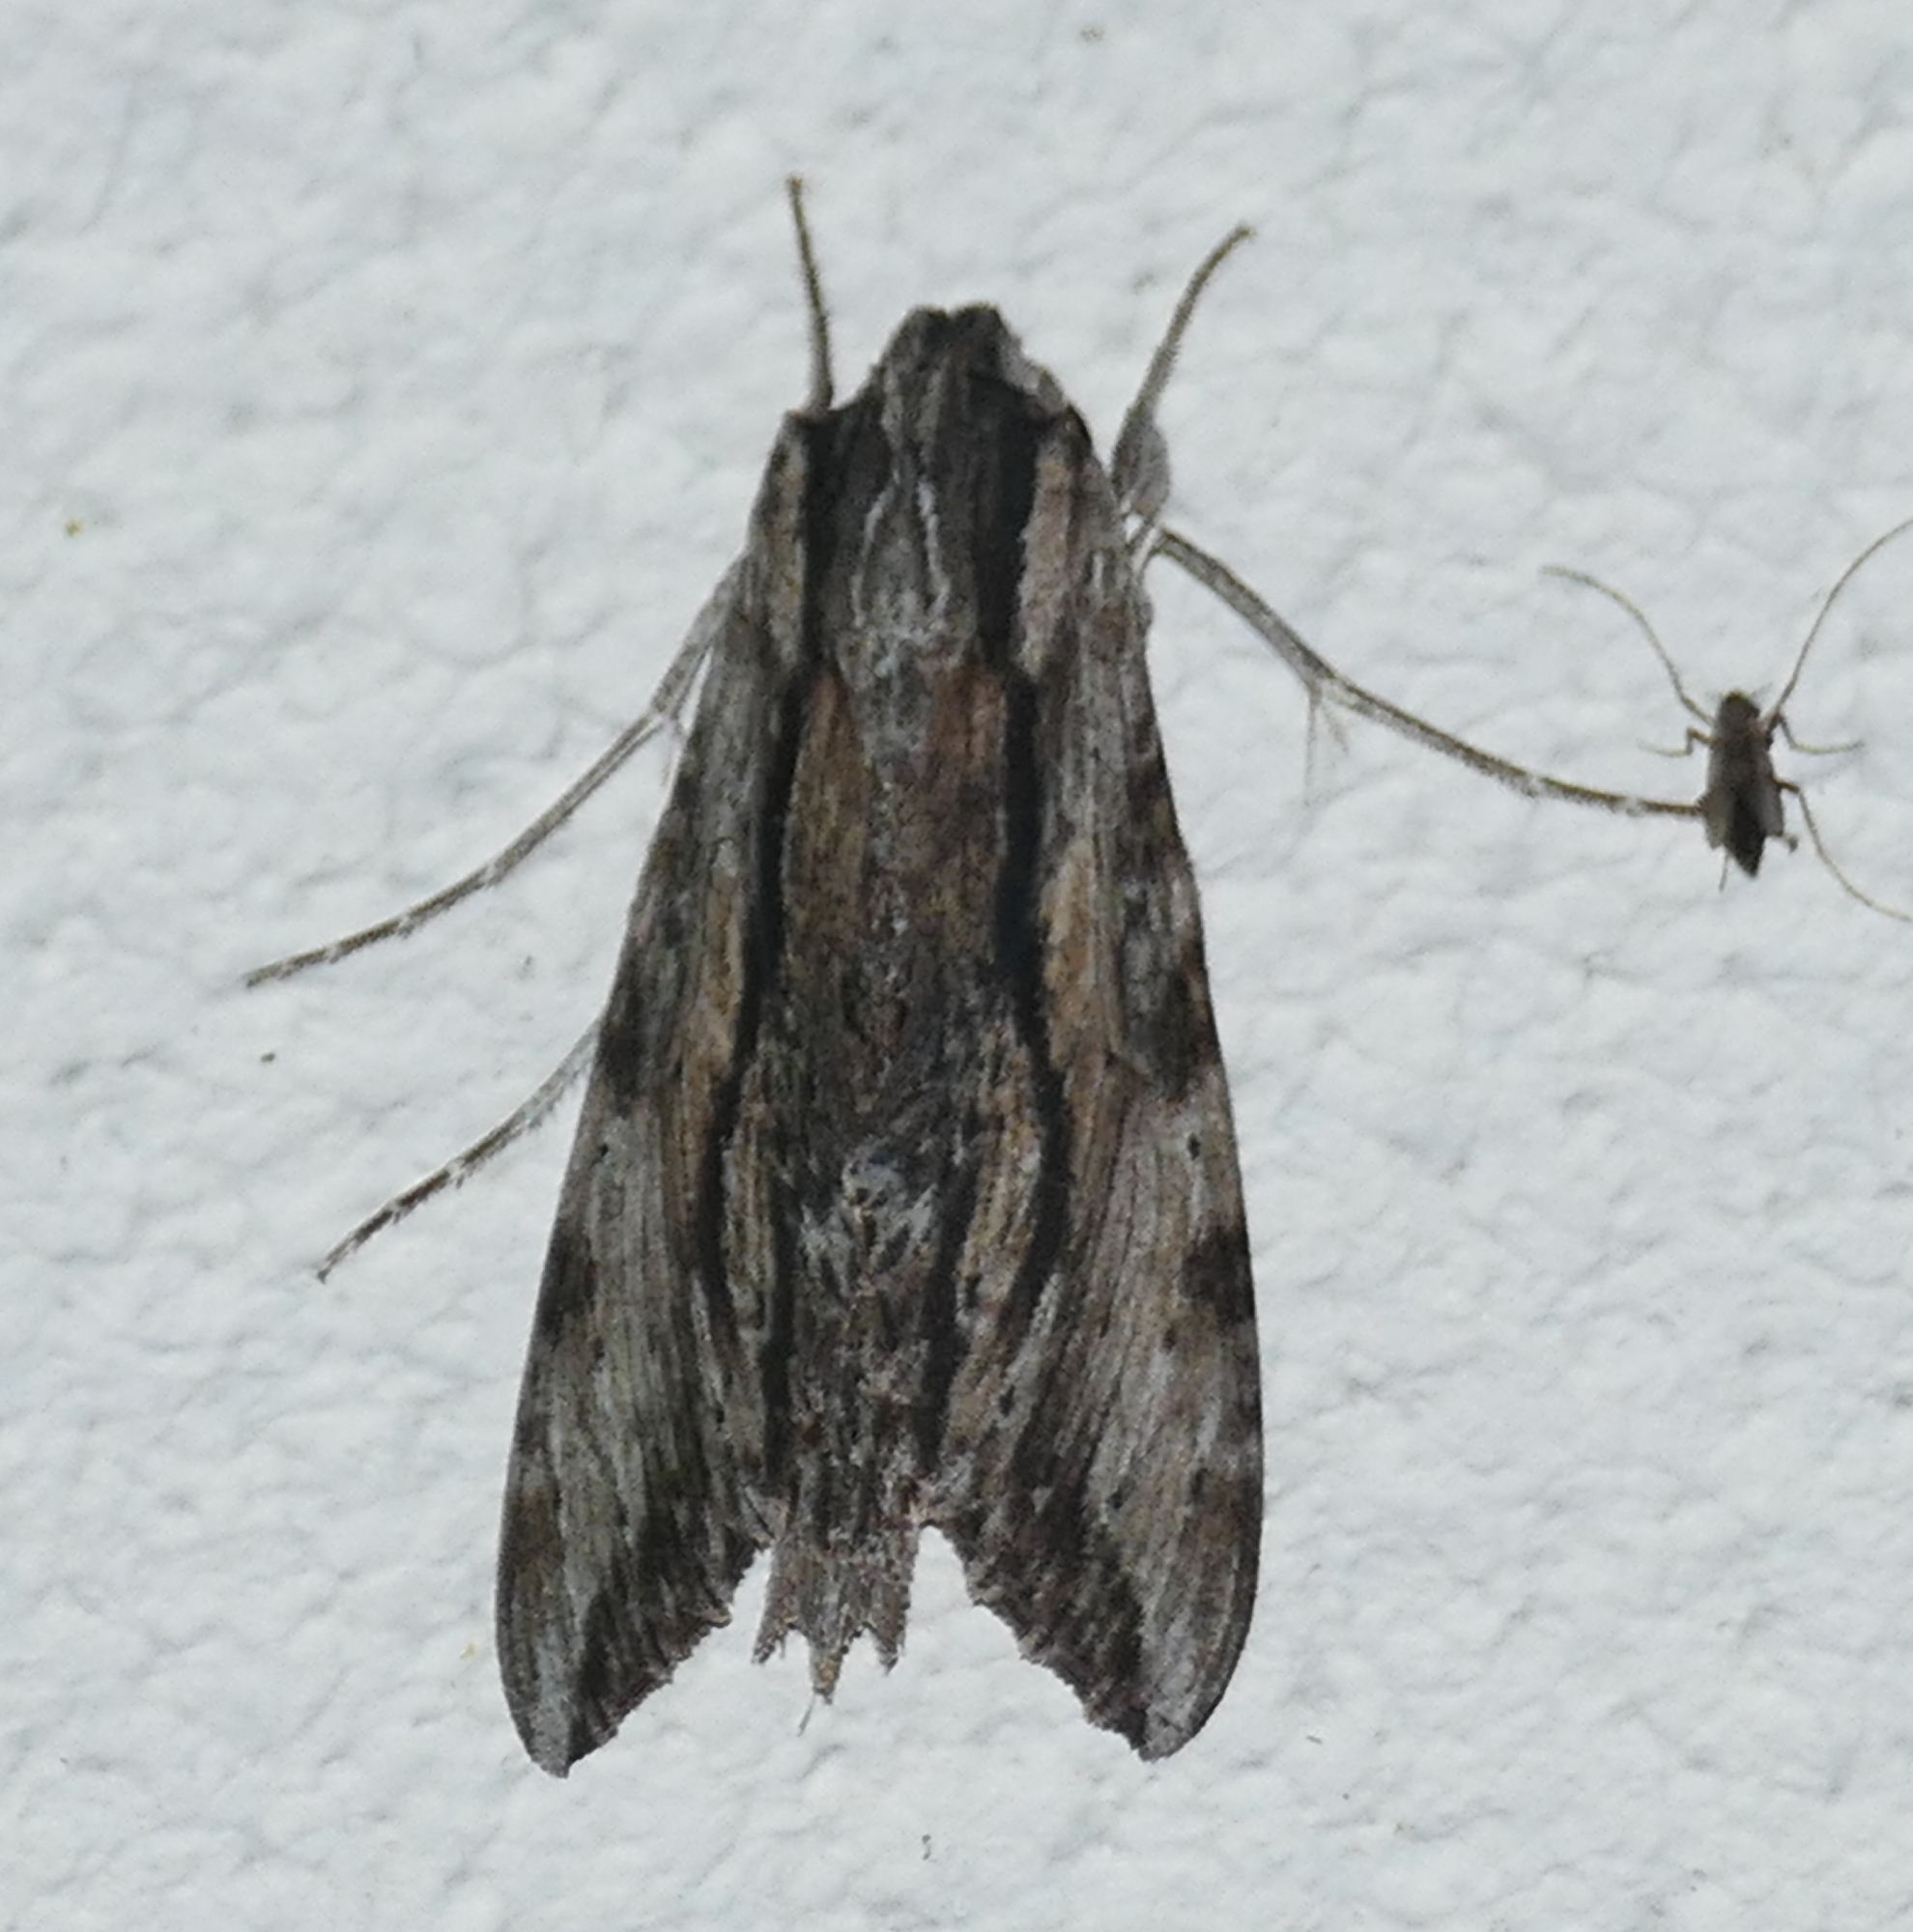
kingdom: Animalia
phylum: Arthropoda
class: Insecta
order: Lepidoptera
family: Sphingidae
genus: Erinnyis
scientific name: Erinnyis obscura
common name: Obscure sphinx
